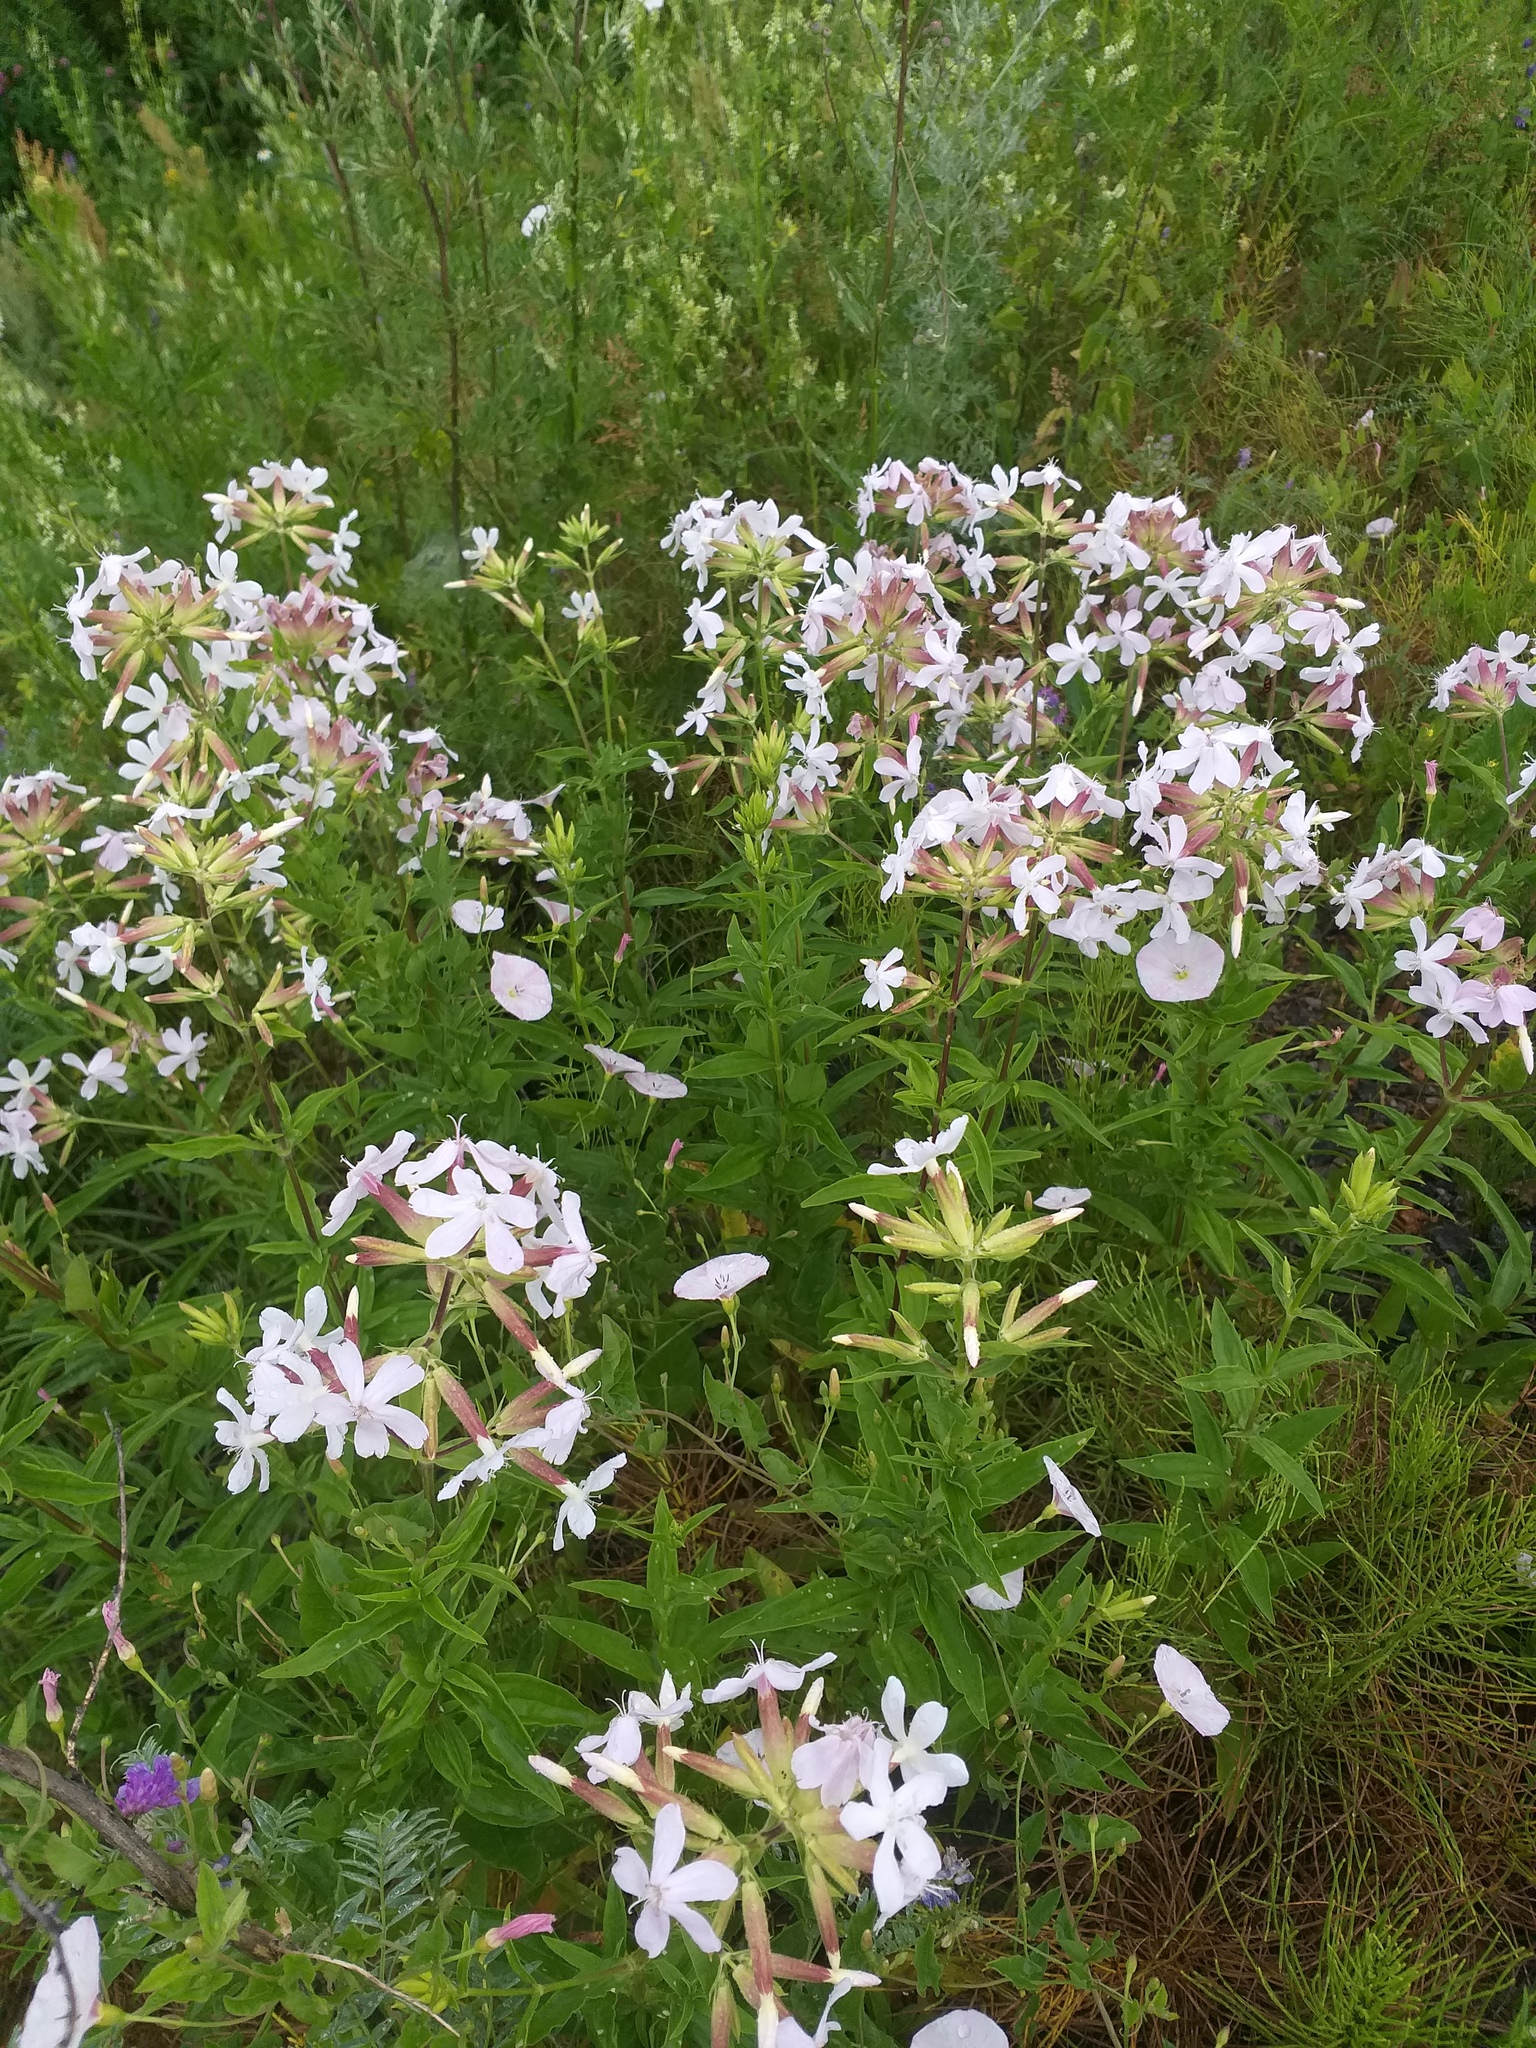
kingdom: Plantae
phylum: Tracheophyta
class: Magnoliopsida
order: Caryophyllales
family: Caryophyllaceae
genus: Saponaria
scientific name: Saponaria officinalis
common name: Soapwort
